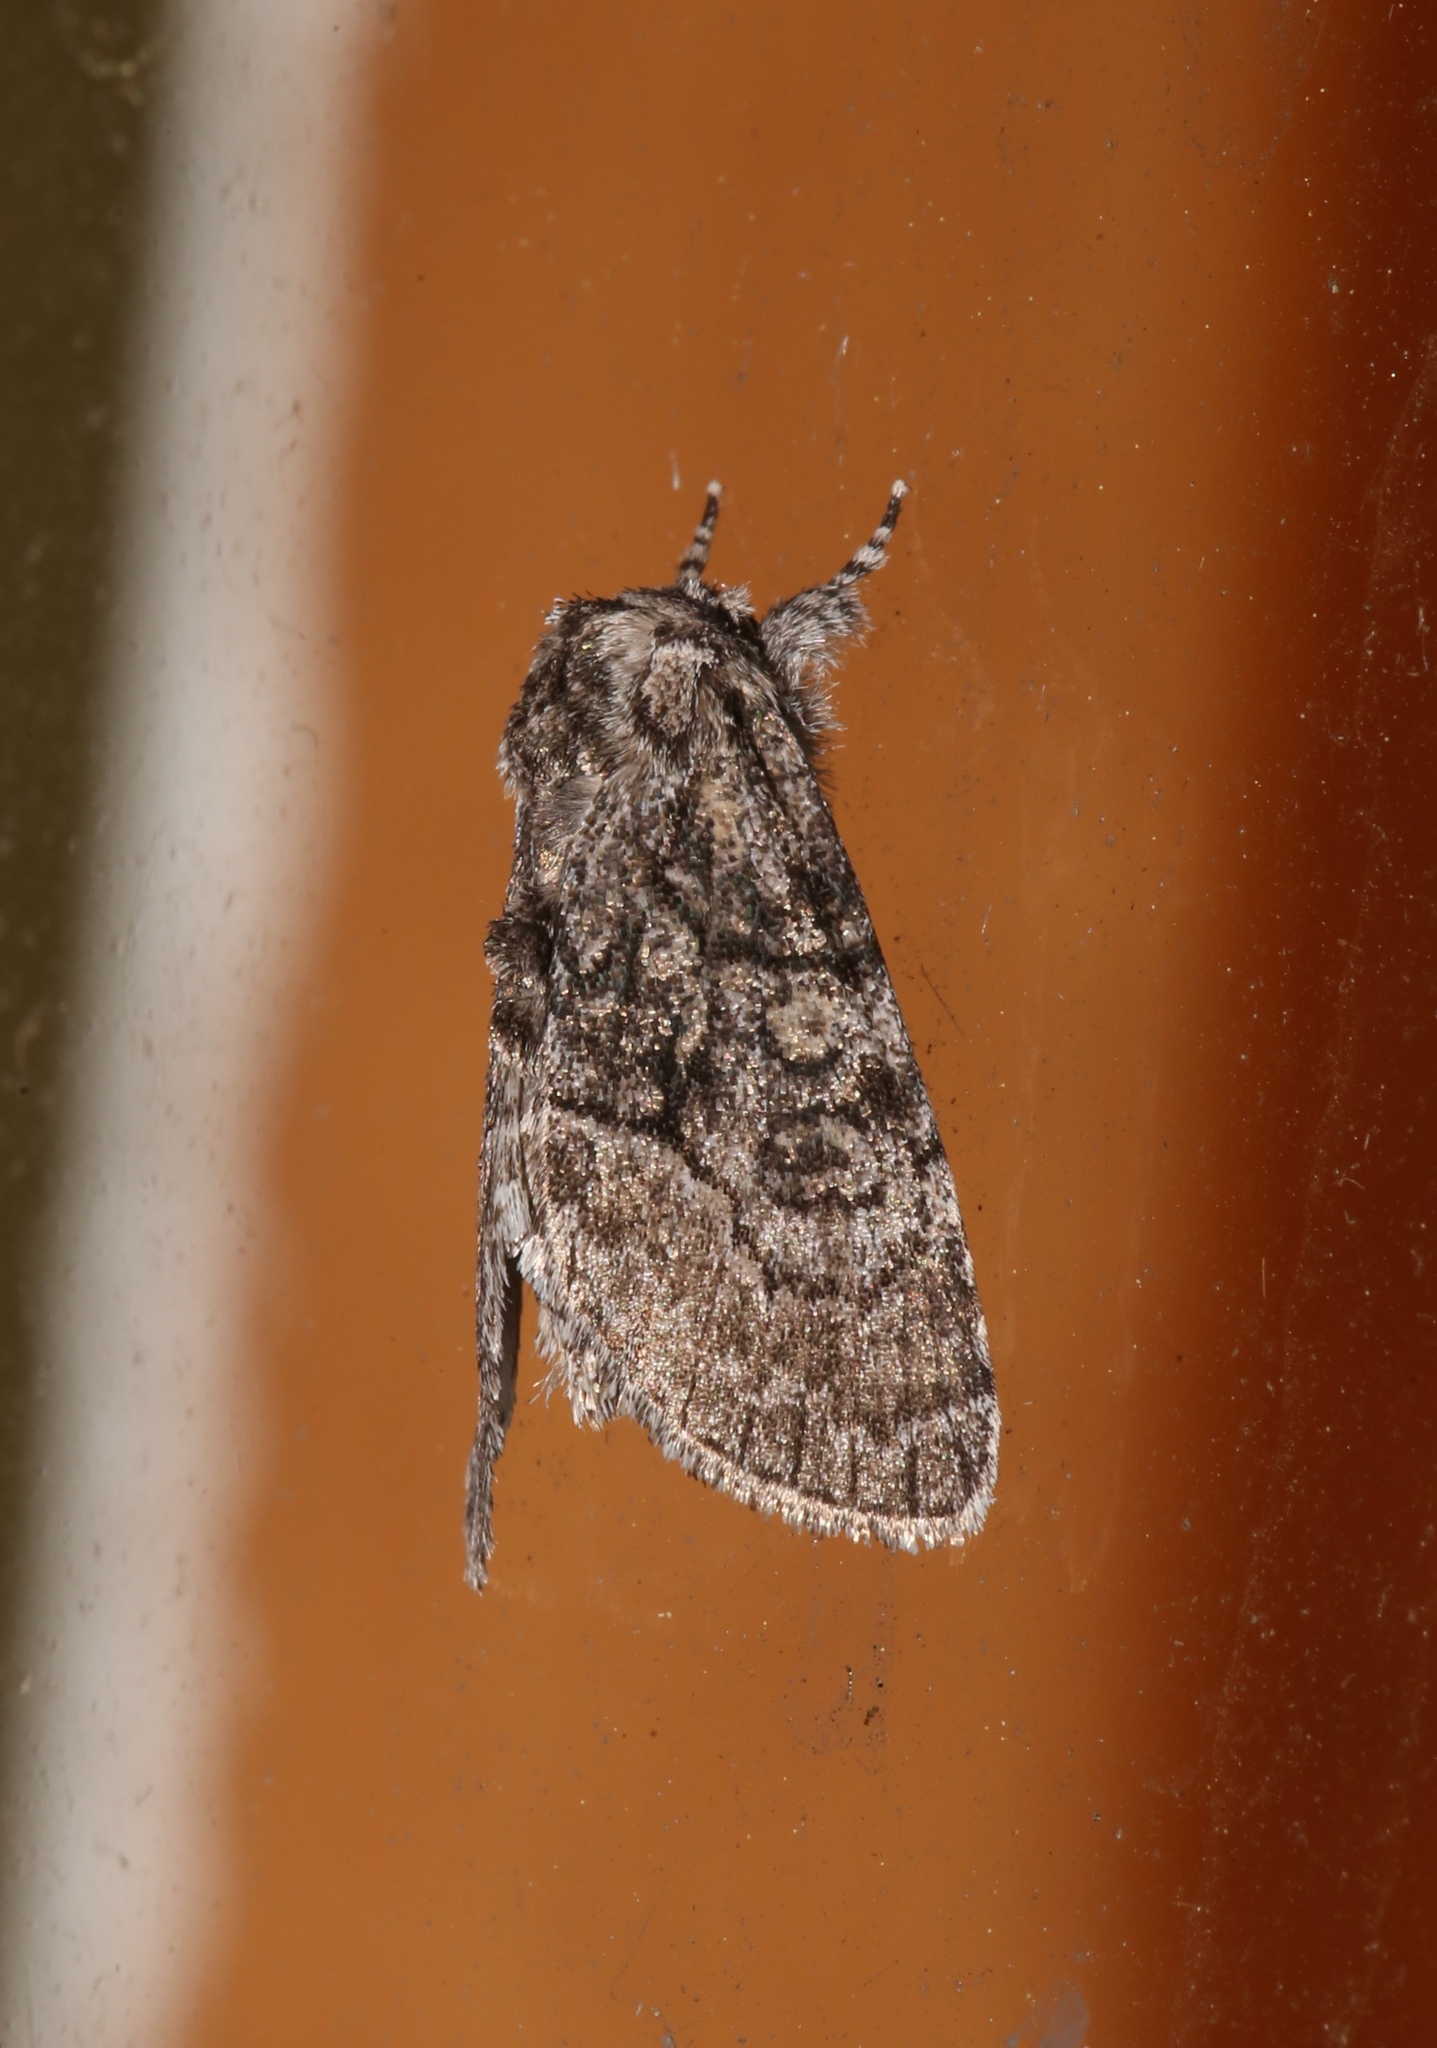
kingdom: Animalia
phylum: Arthropoda
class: Insecta
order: Lepidoptera
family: Noctuidae
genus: Raphia
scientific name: Raphia frater
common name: Brother
